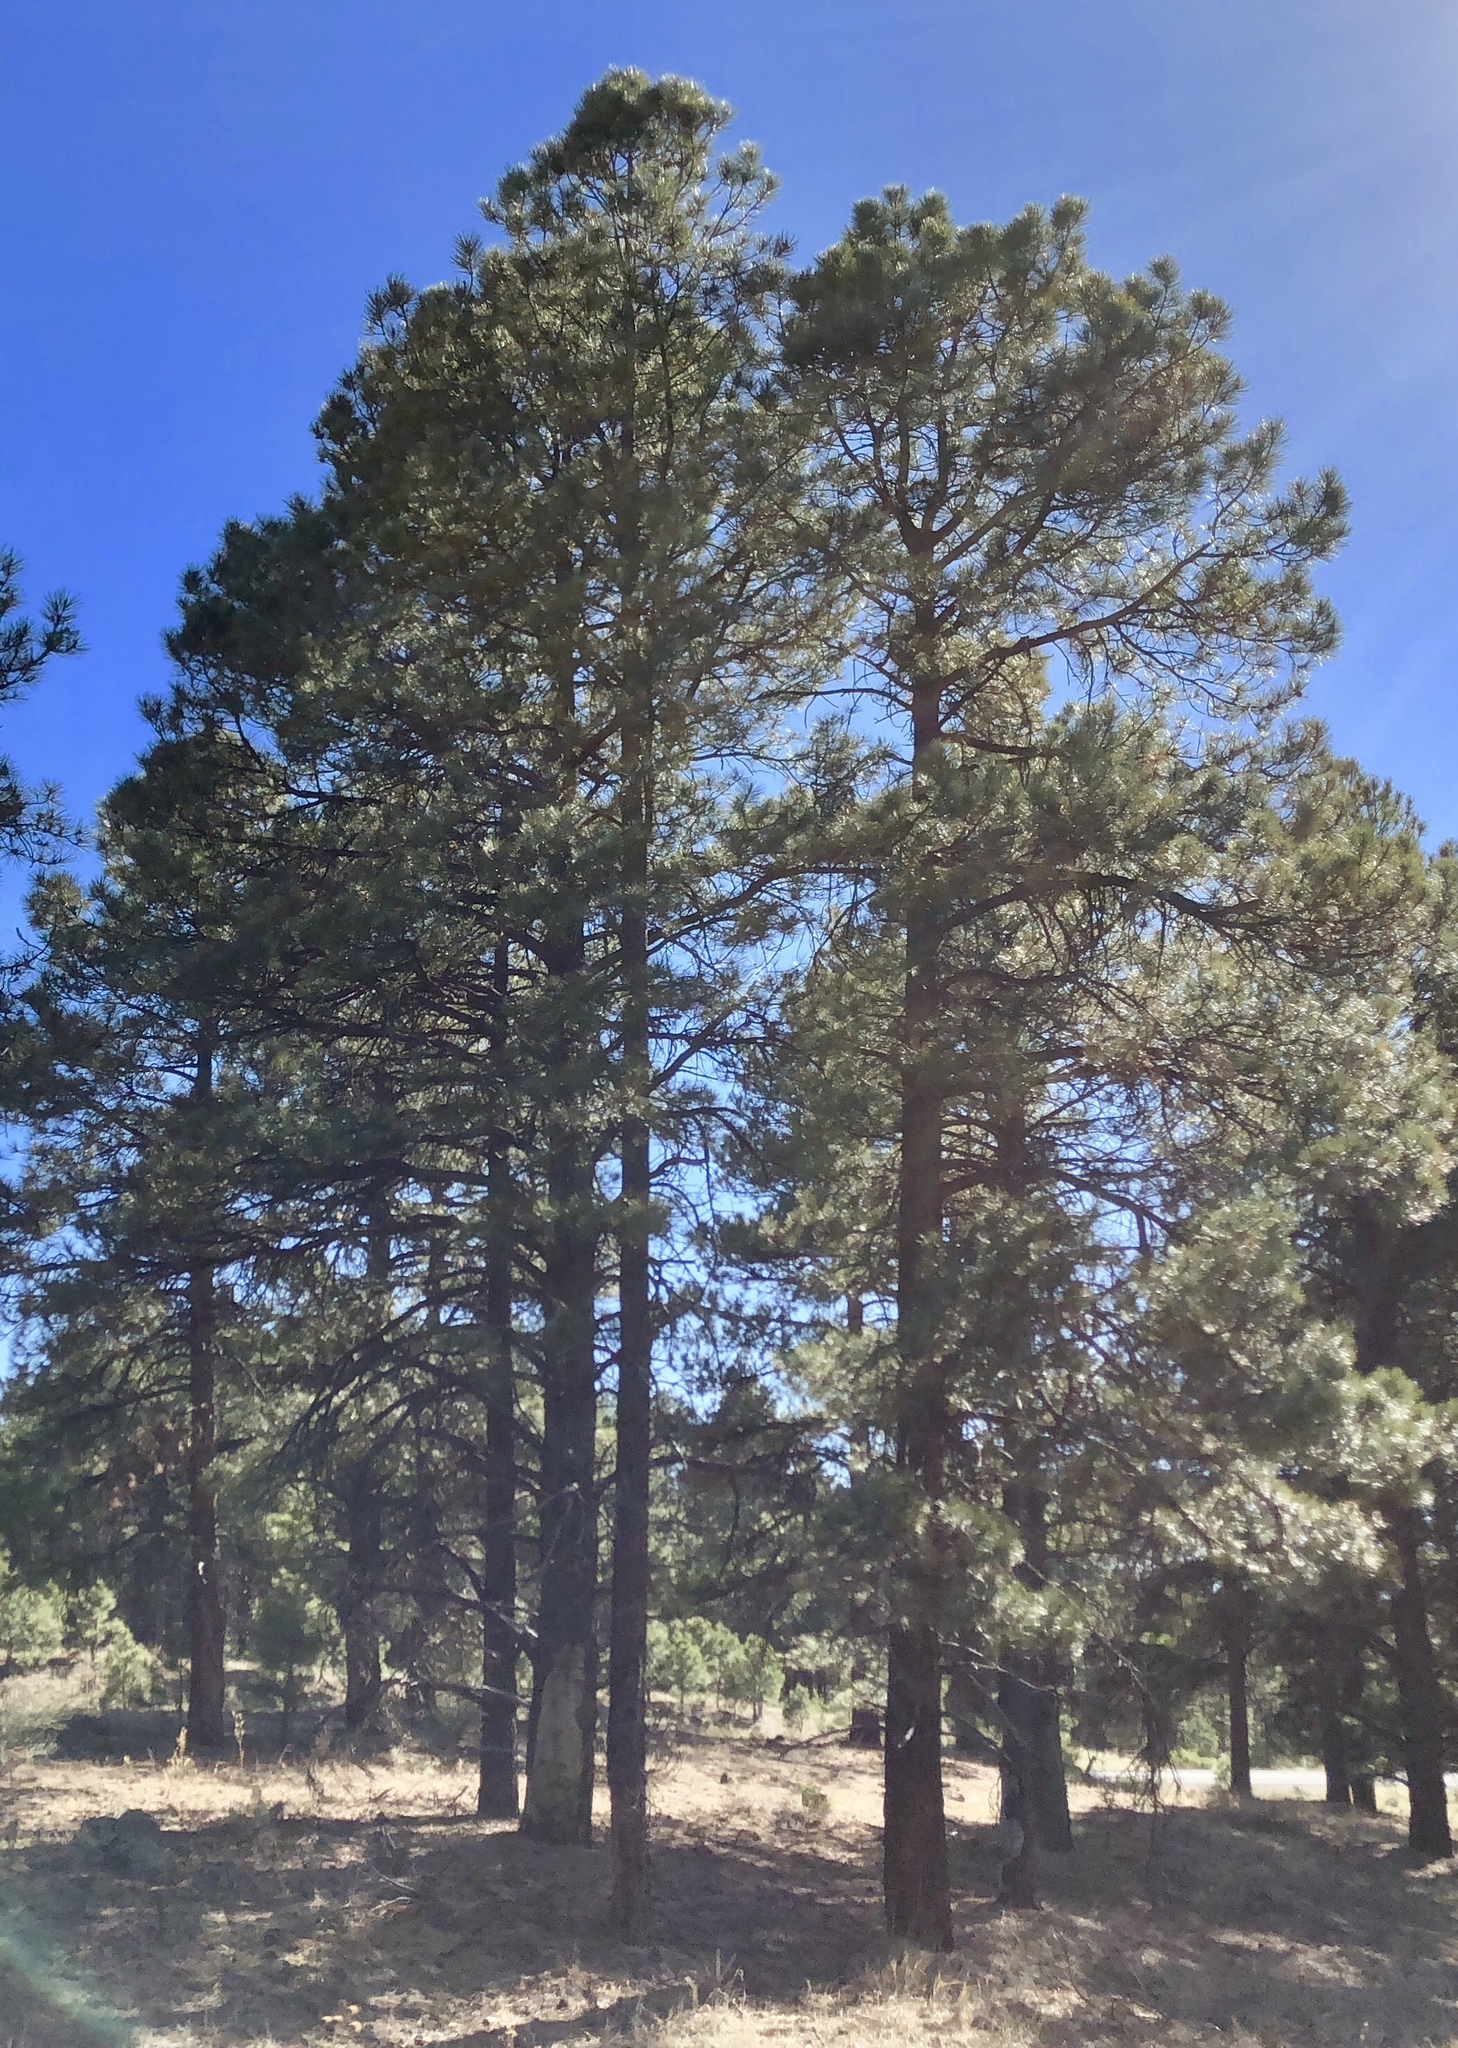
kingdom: Plantae
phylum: Tracheophyta
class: Pinopsida
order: Pinales
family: Pinaceae
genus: Pinus
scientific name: Pinus ponderosa
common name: Western yellow-pine
